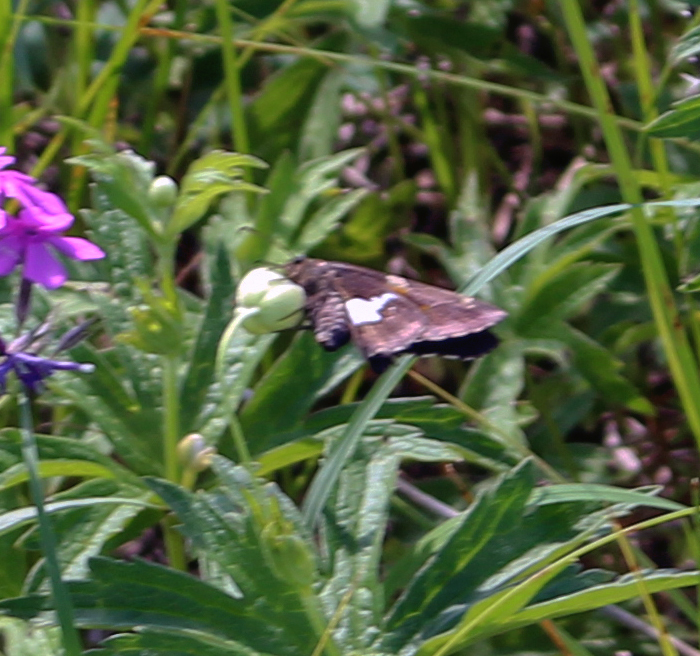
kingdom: Animalia
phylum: Arthropoda
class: Insecta
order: Lepidoptera
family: Hesperiidae
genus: Epargyreus
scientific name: Epargyreus clarus
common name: Silver-spotted skipper
